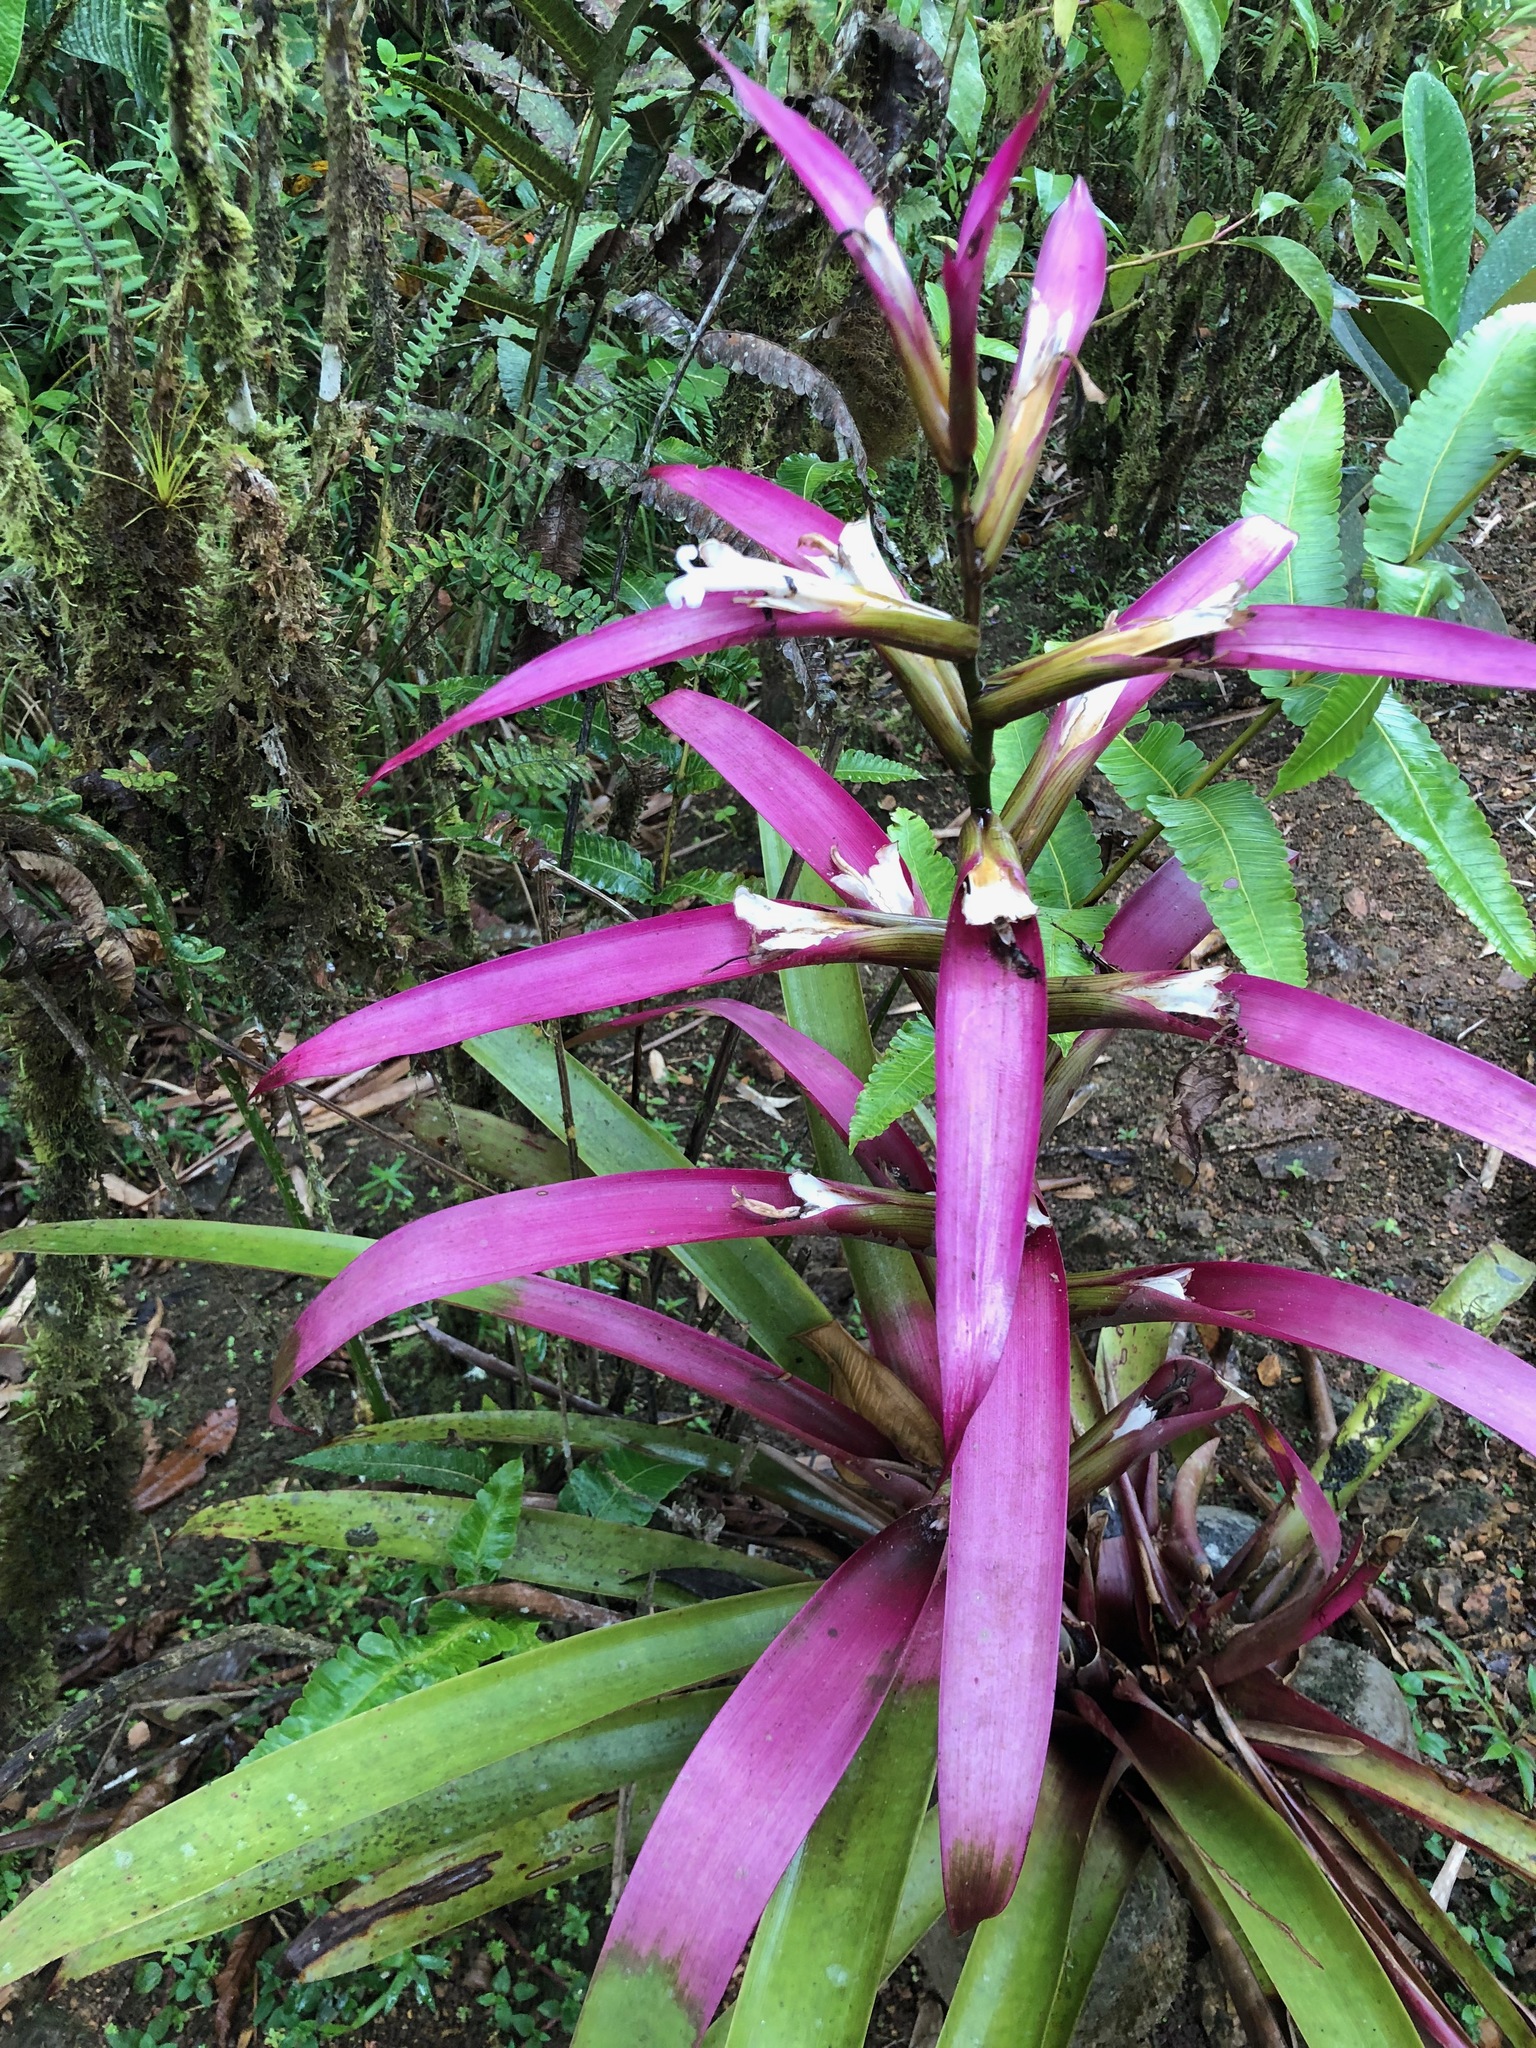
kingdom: Plantae
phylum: Tracheophyta
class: Liliopsida
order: Poales
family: Bromeliaceae
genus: Guzmania
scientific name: Guzmania wittmackii
